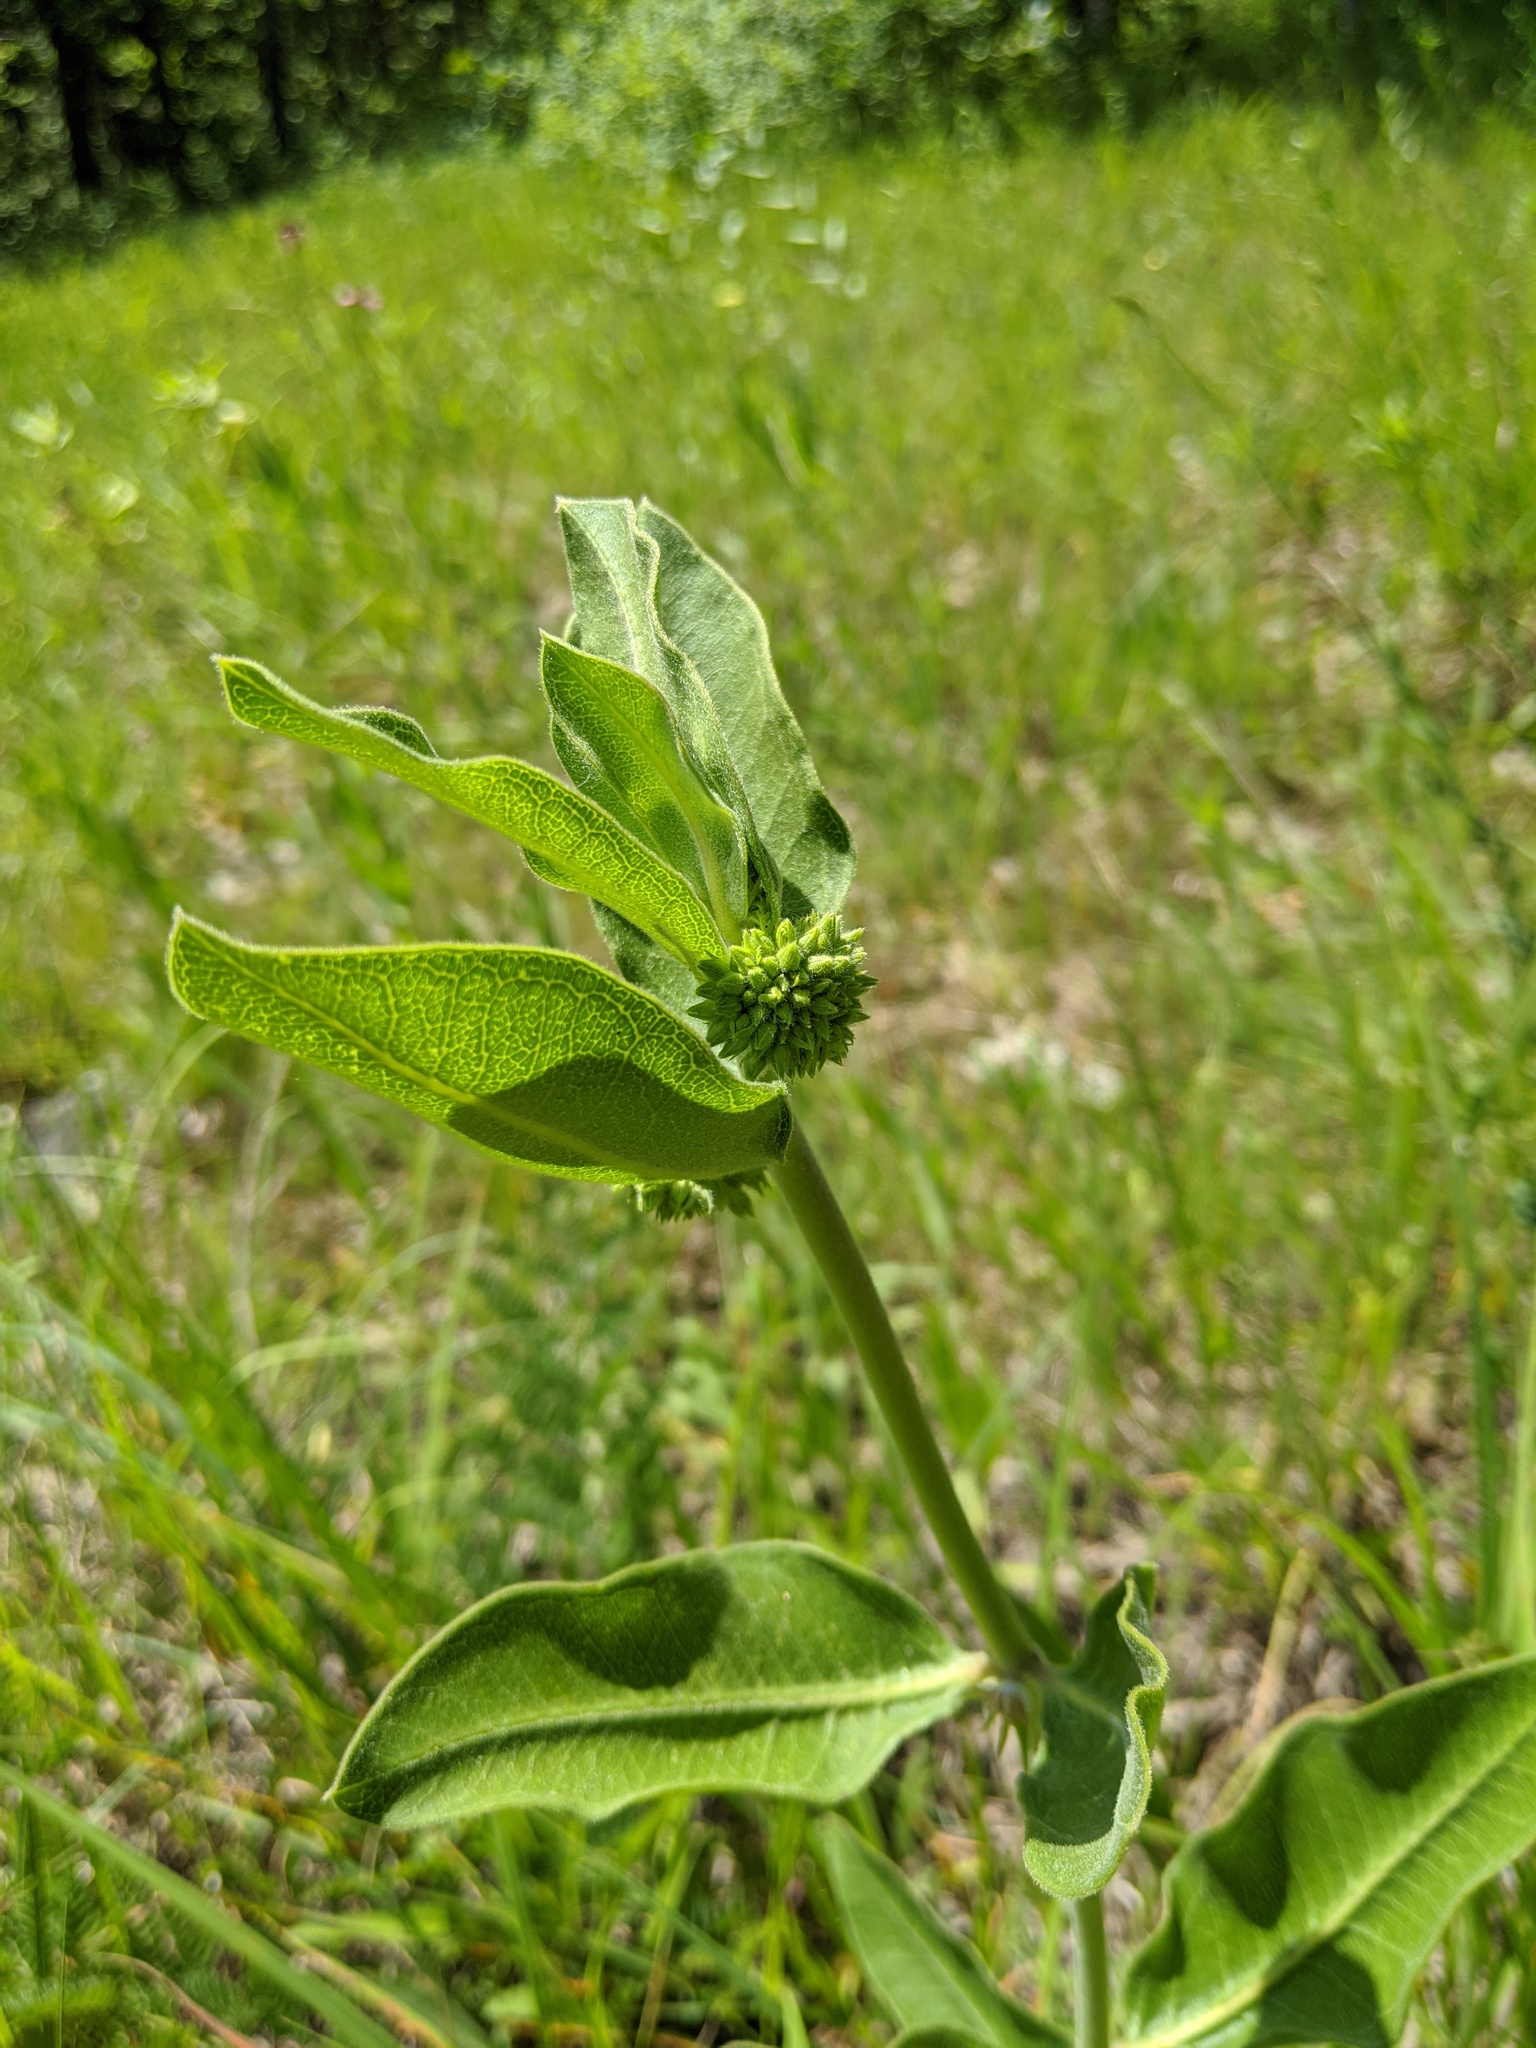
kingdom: Plantae
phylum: Tracheophyta
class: Magnoliopsida
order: Gentianales
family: Apocynaceae
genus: Asclepias
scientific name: Asclepias viridiflora
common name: Green comet milkweed
